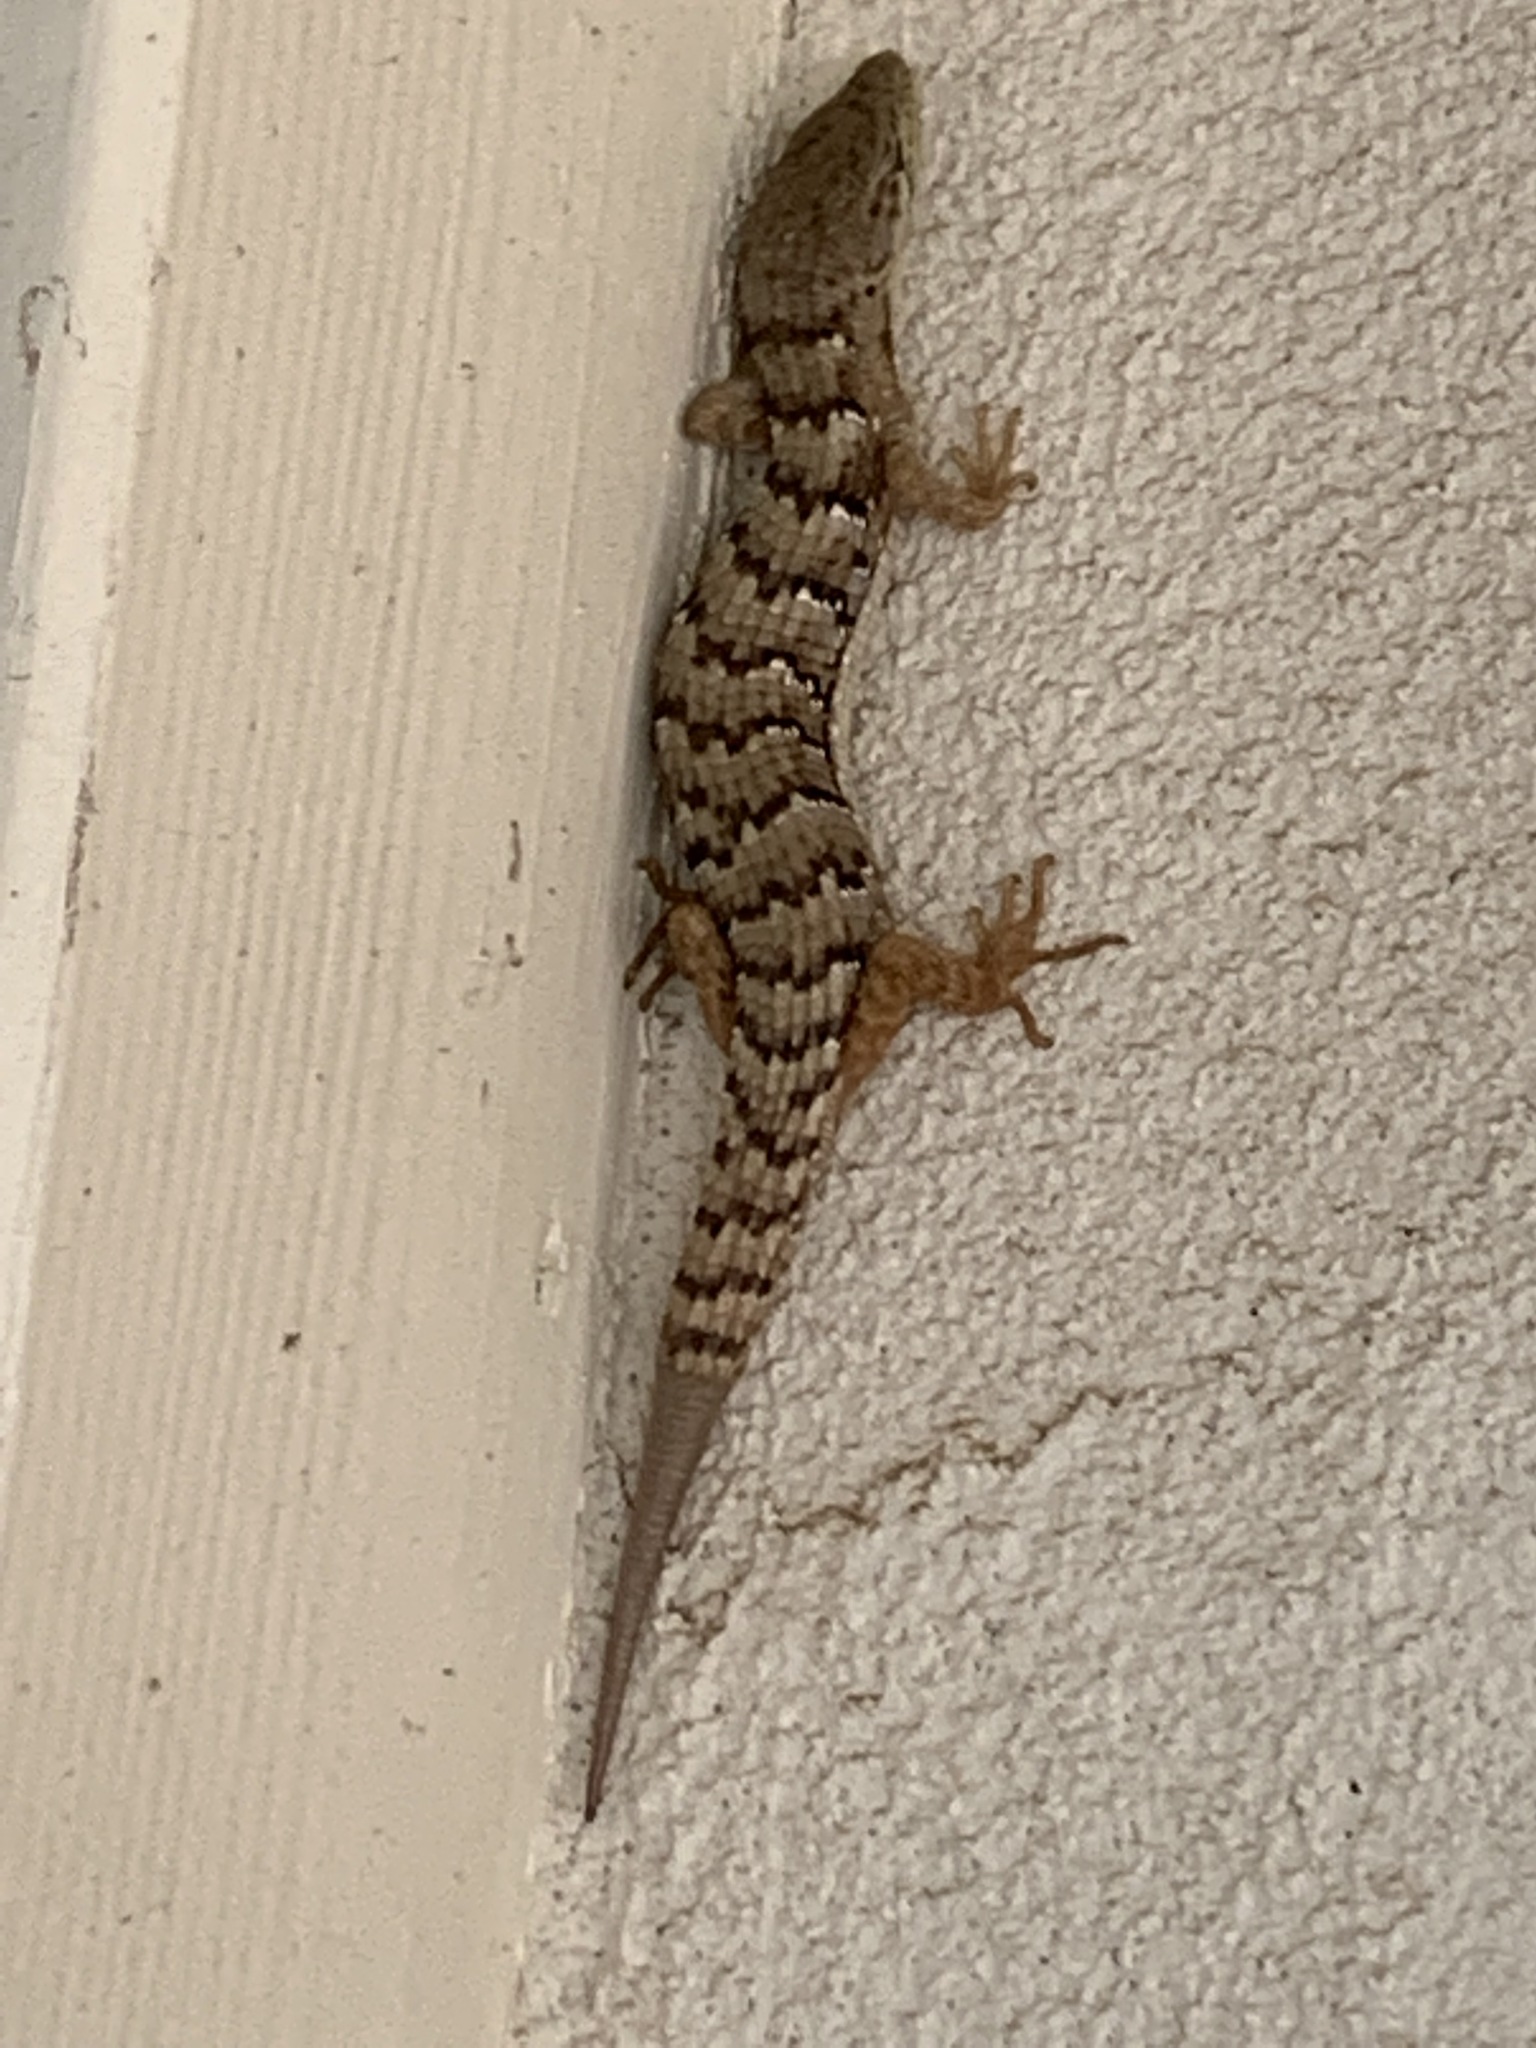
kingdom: Animalia
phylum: Chordata
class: Squamata
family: Anguidae
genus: Elgaria
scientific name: Elgaria multicarinata
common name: Southern alligator lizard
